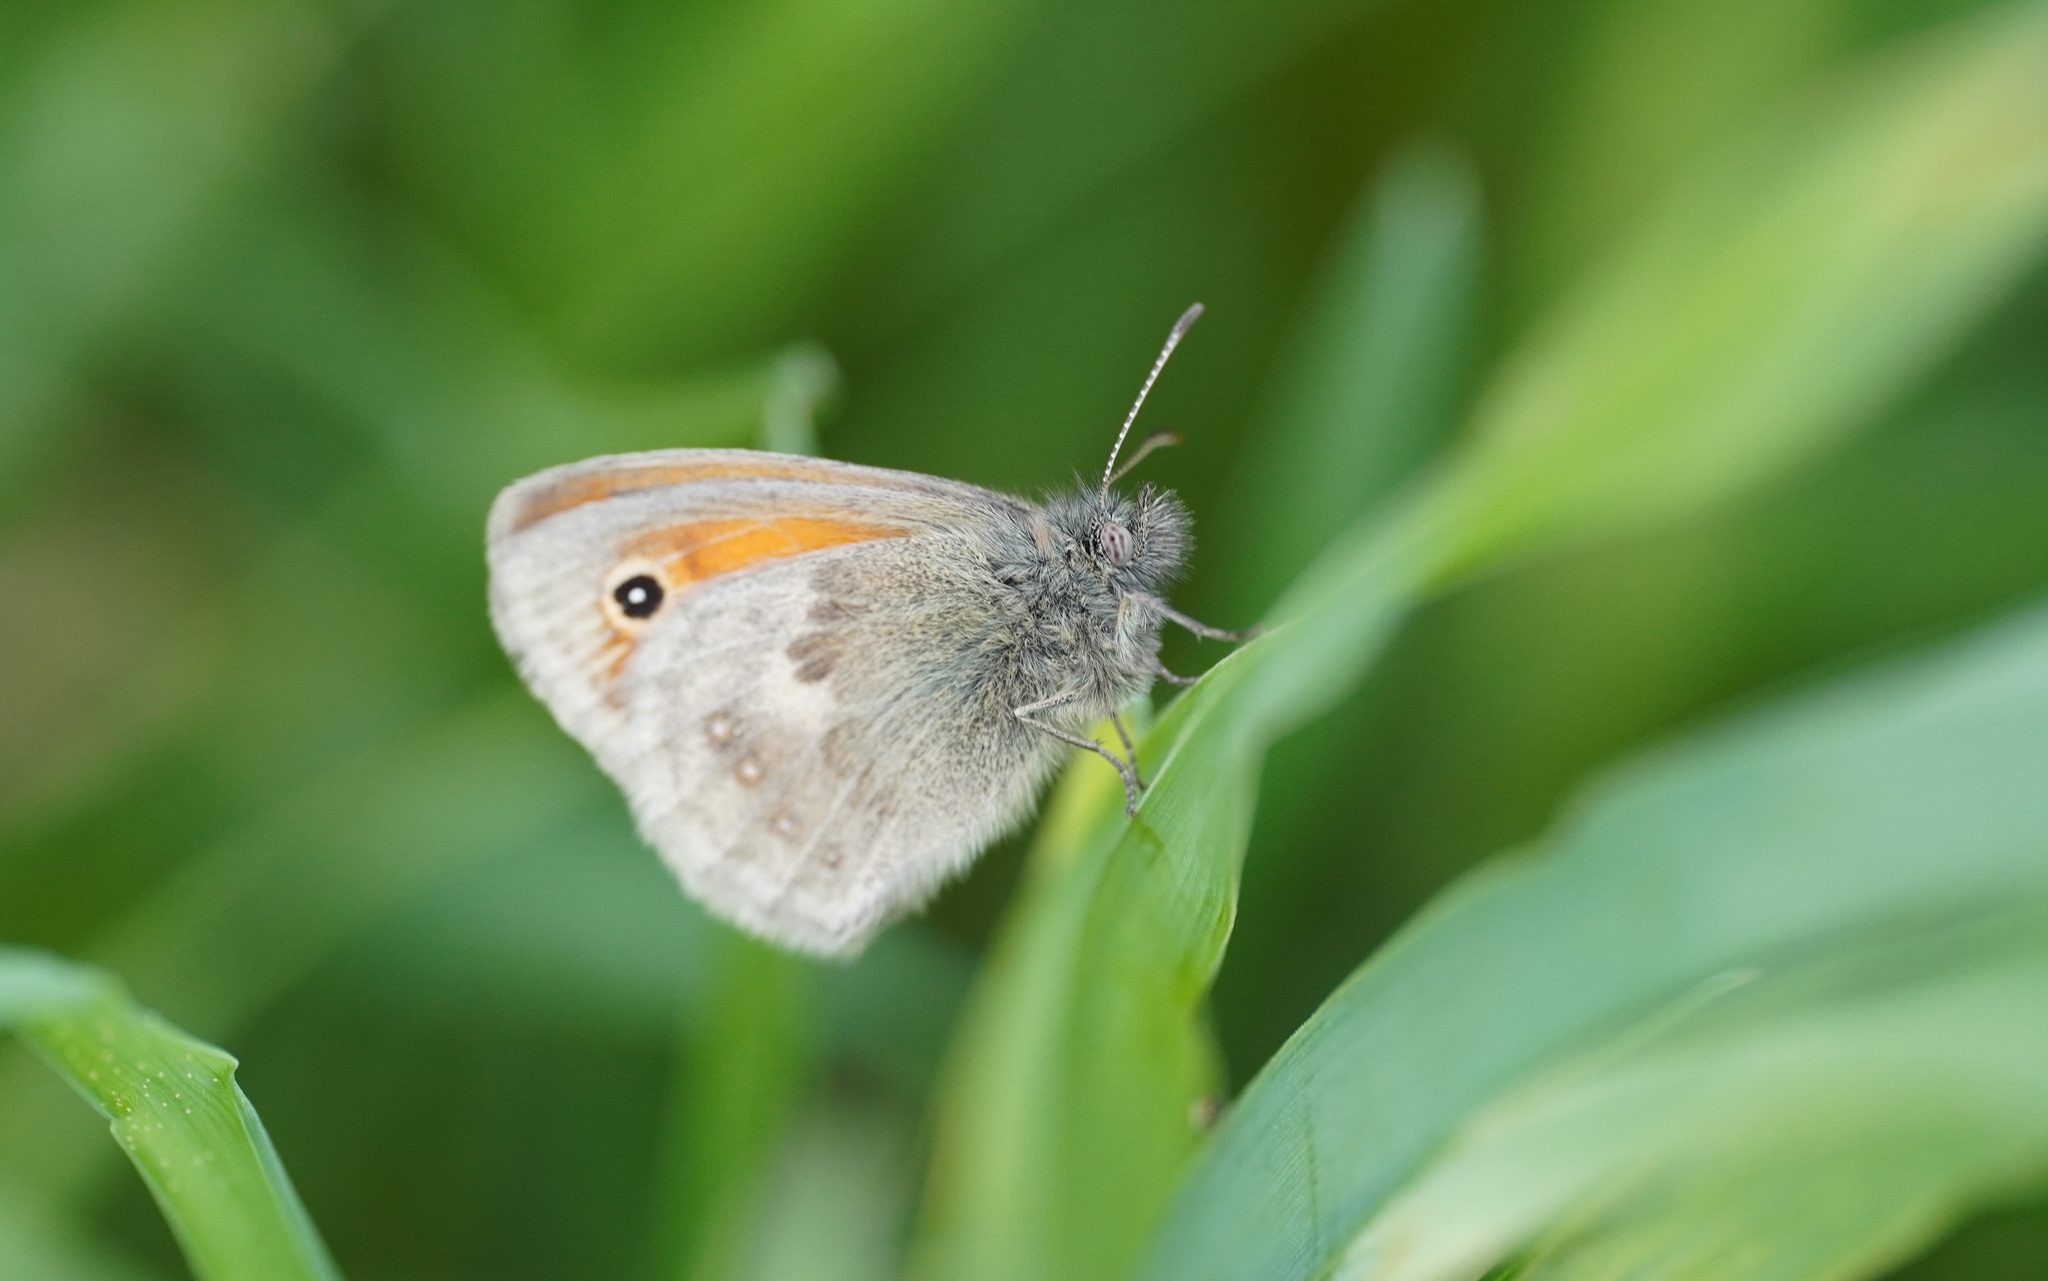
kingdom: Animalia
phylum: Arthropoda
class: Insecta
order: Lepidoptera
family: Nymphalidae
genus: Coenonympha
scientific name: Coenonympha pamphilus
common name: Small heath
